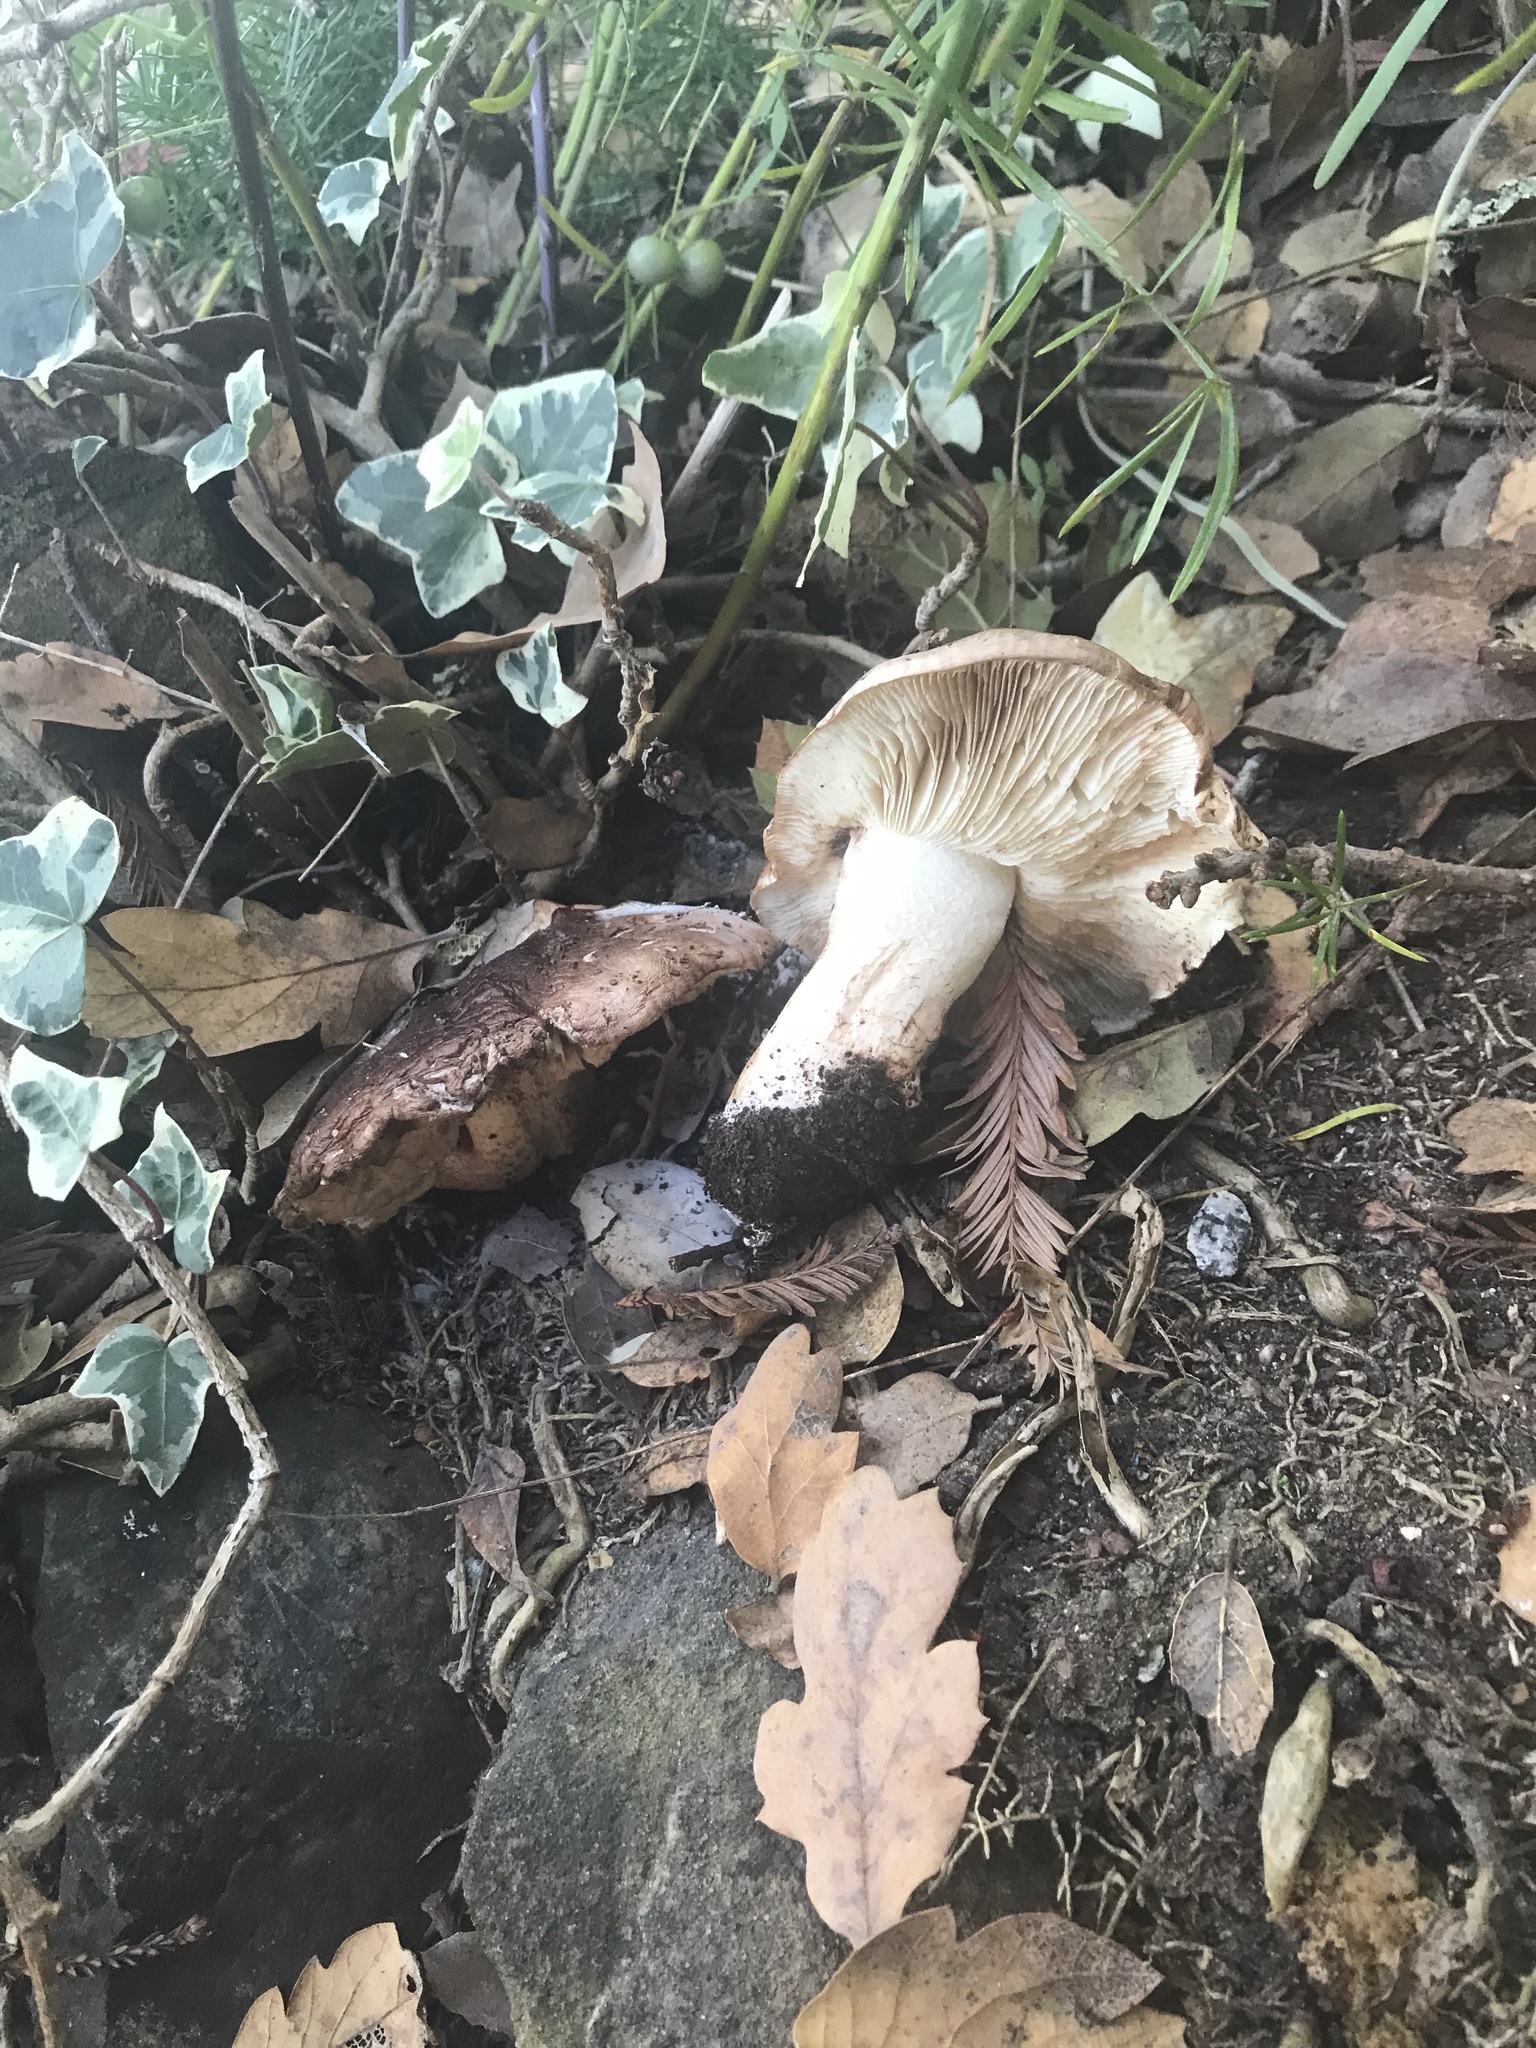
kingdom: Fungi
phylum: Basidiomycota
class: Agaricomycetes
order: Agaricales
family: Tricholomataceae
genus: Melanoleuca
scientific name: Melanoleuca dryophila
